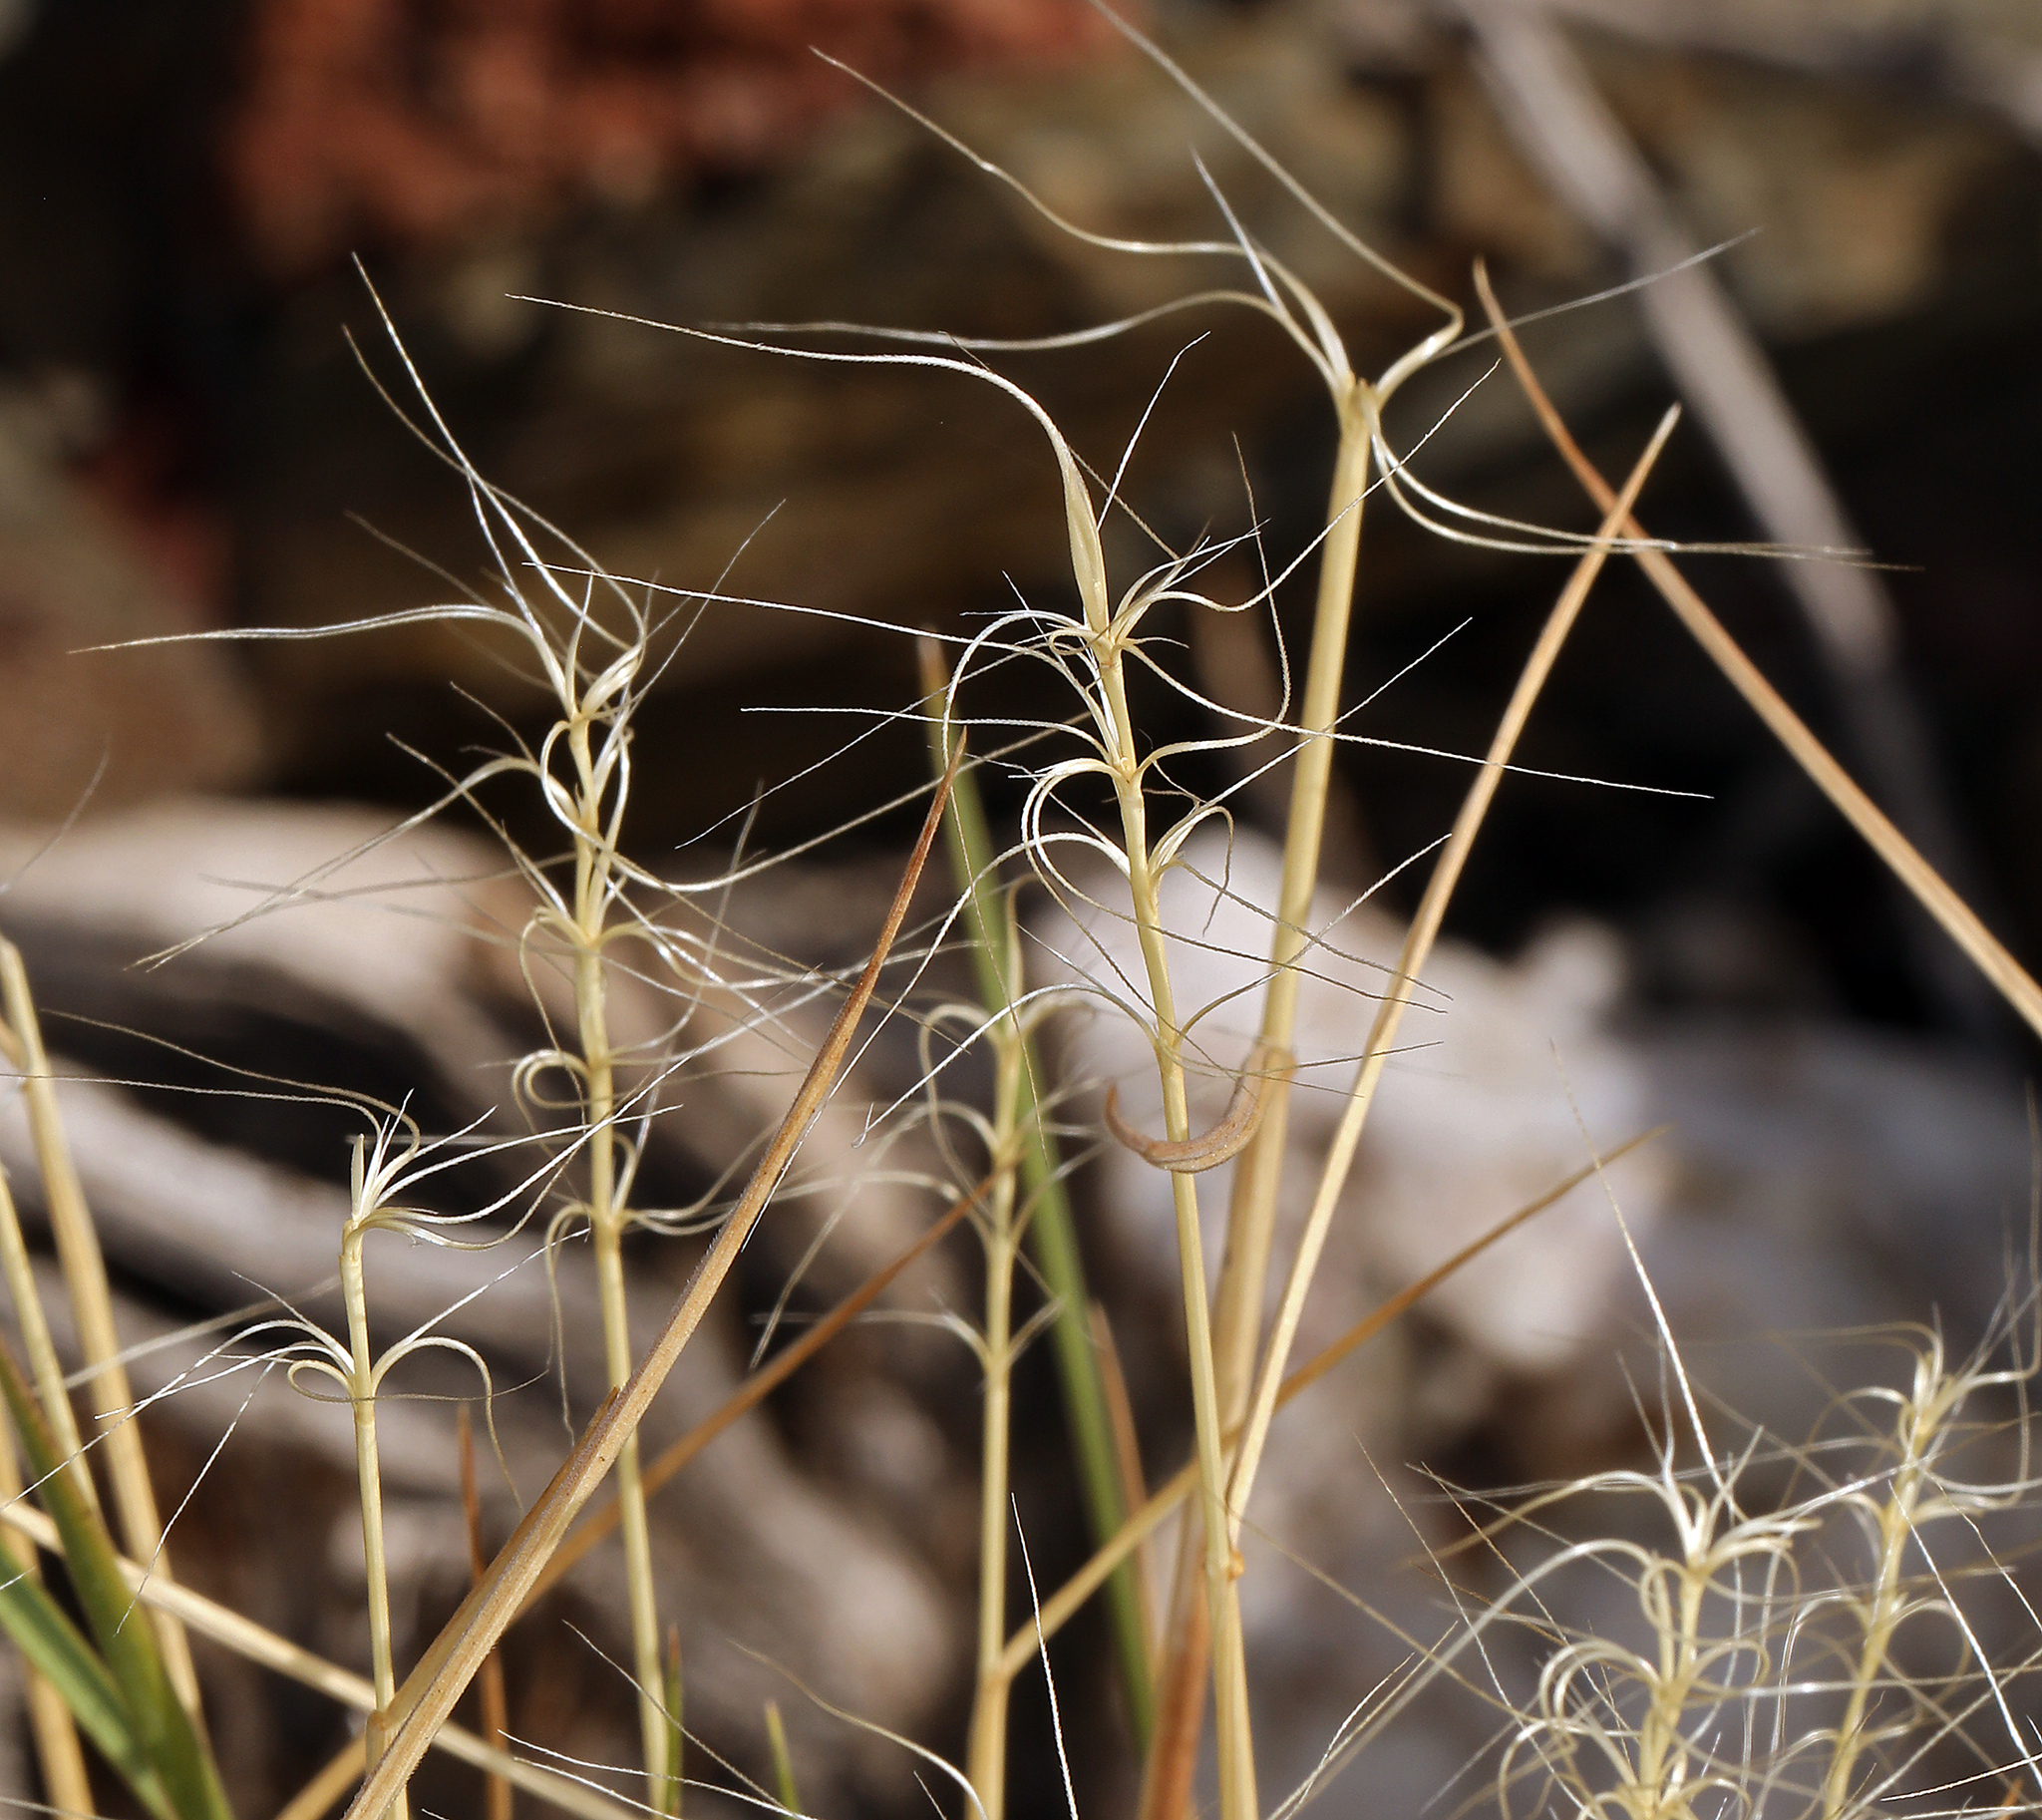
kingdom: Plantae
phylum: Tracheophyta
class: Liliopsida
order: Poales
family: Poaceae
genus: Elymus
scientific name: Elymus elymoides
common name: Bottlebrush squirreltail
